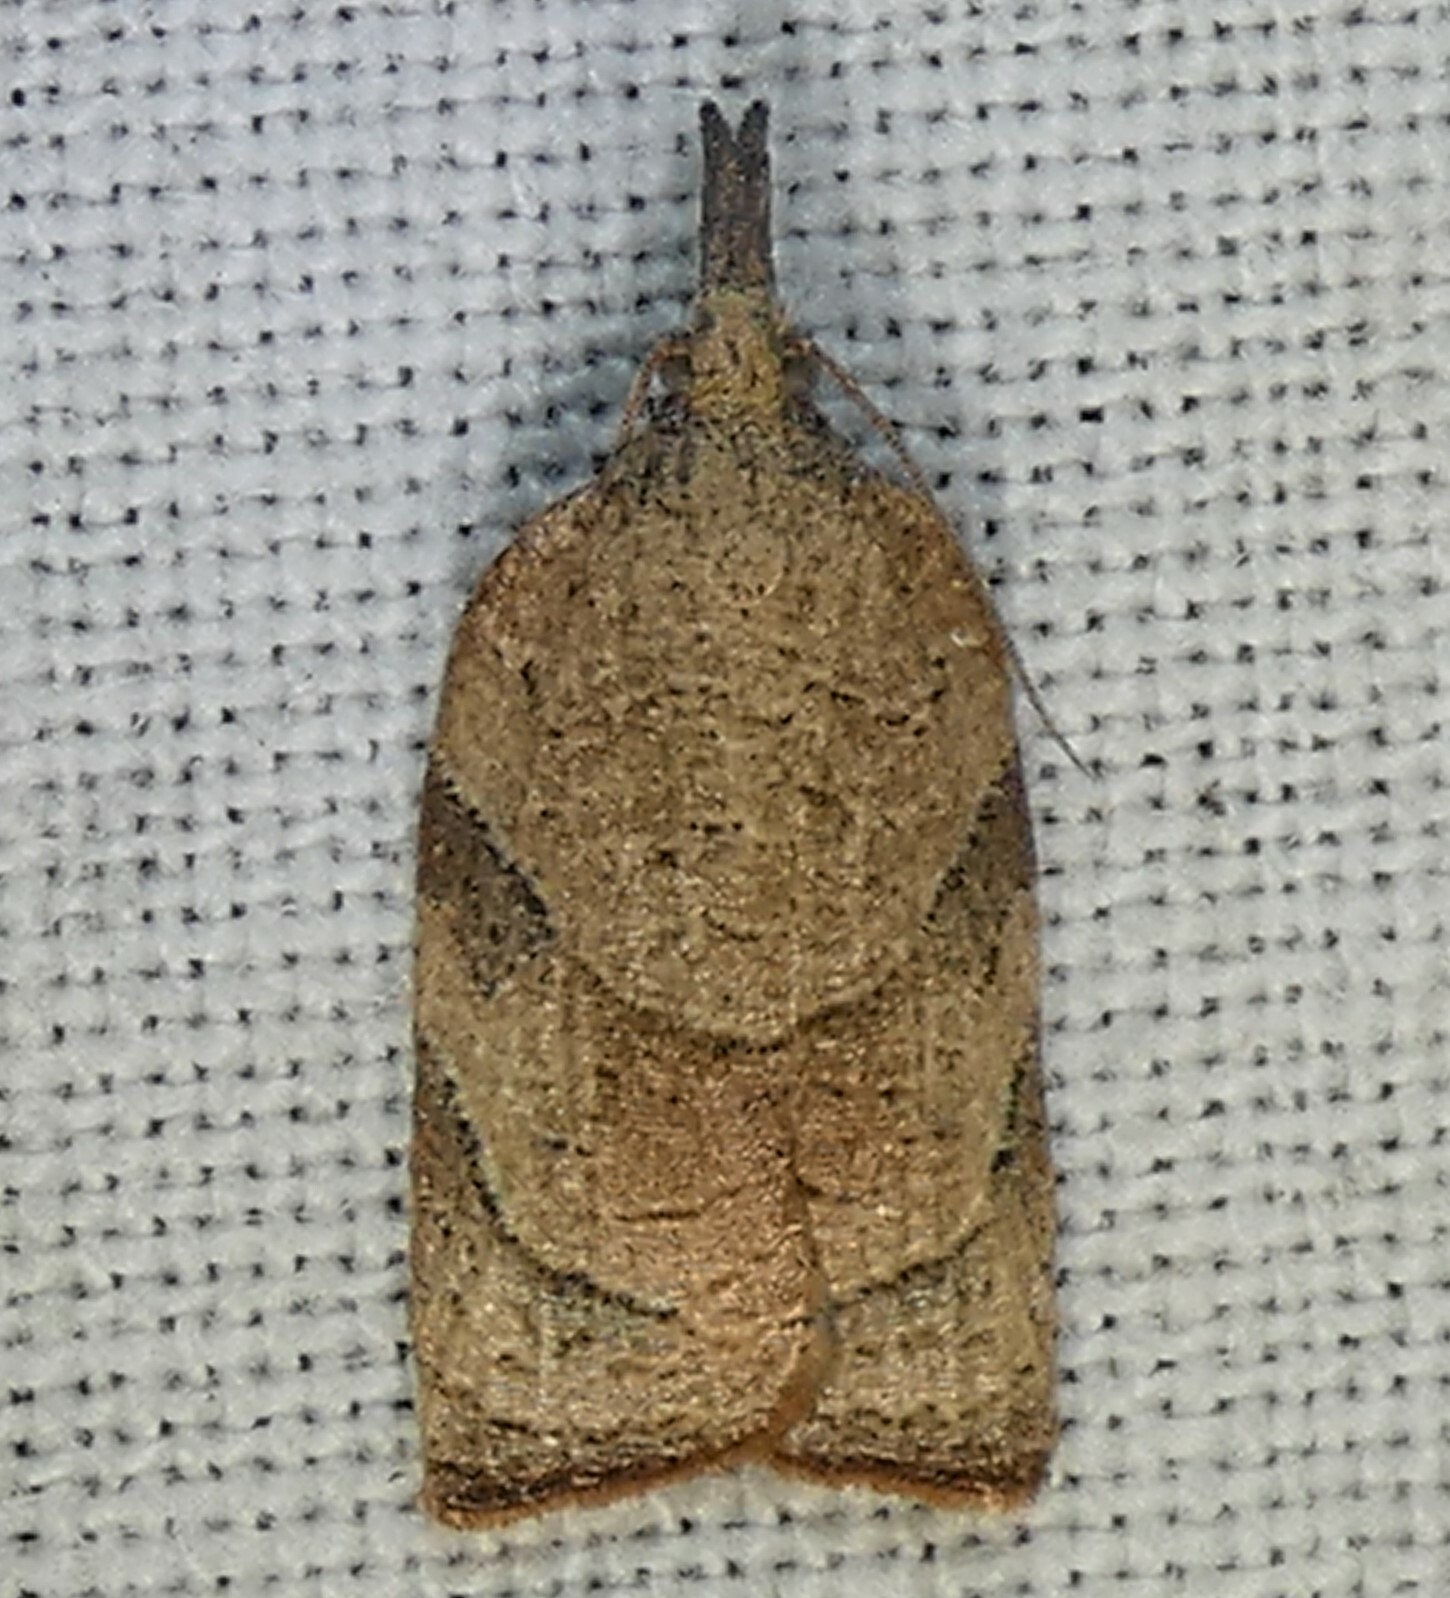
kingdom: Animalia
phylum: Arthropoda
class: Insecta
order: Lepidoptera
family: Tortricidae
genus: Platynota
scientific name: Platynota rostrana
